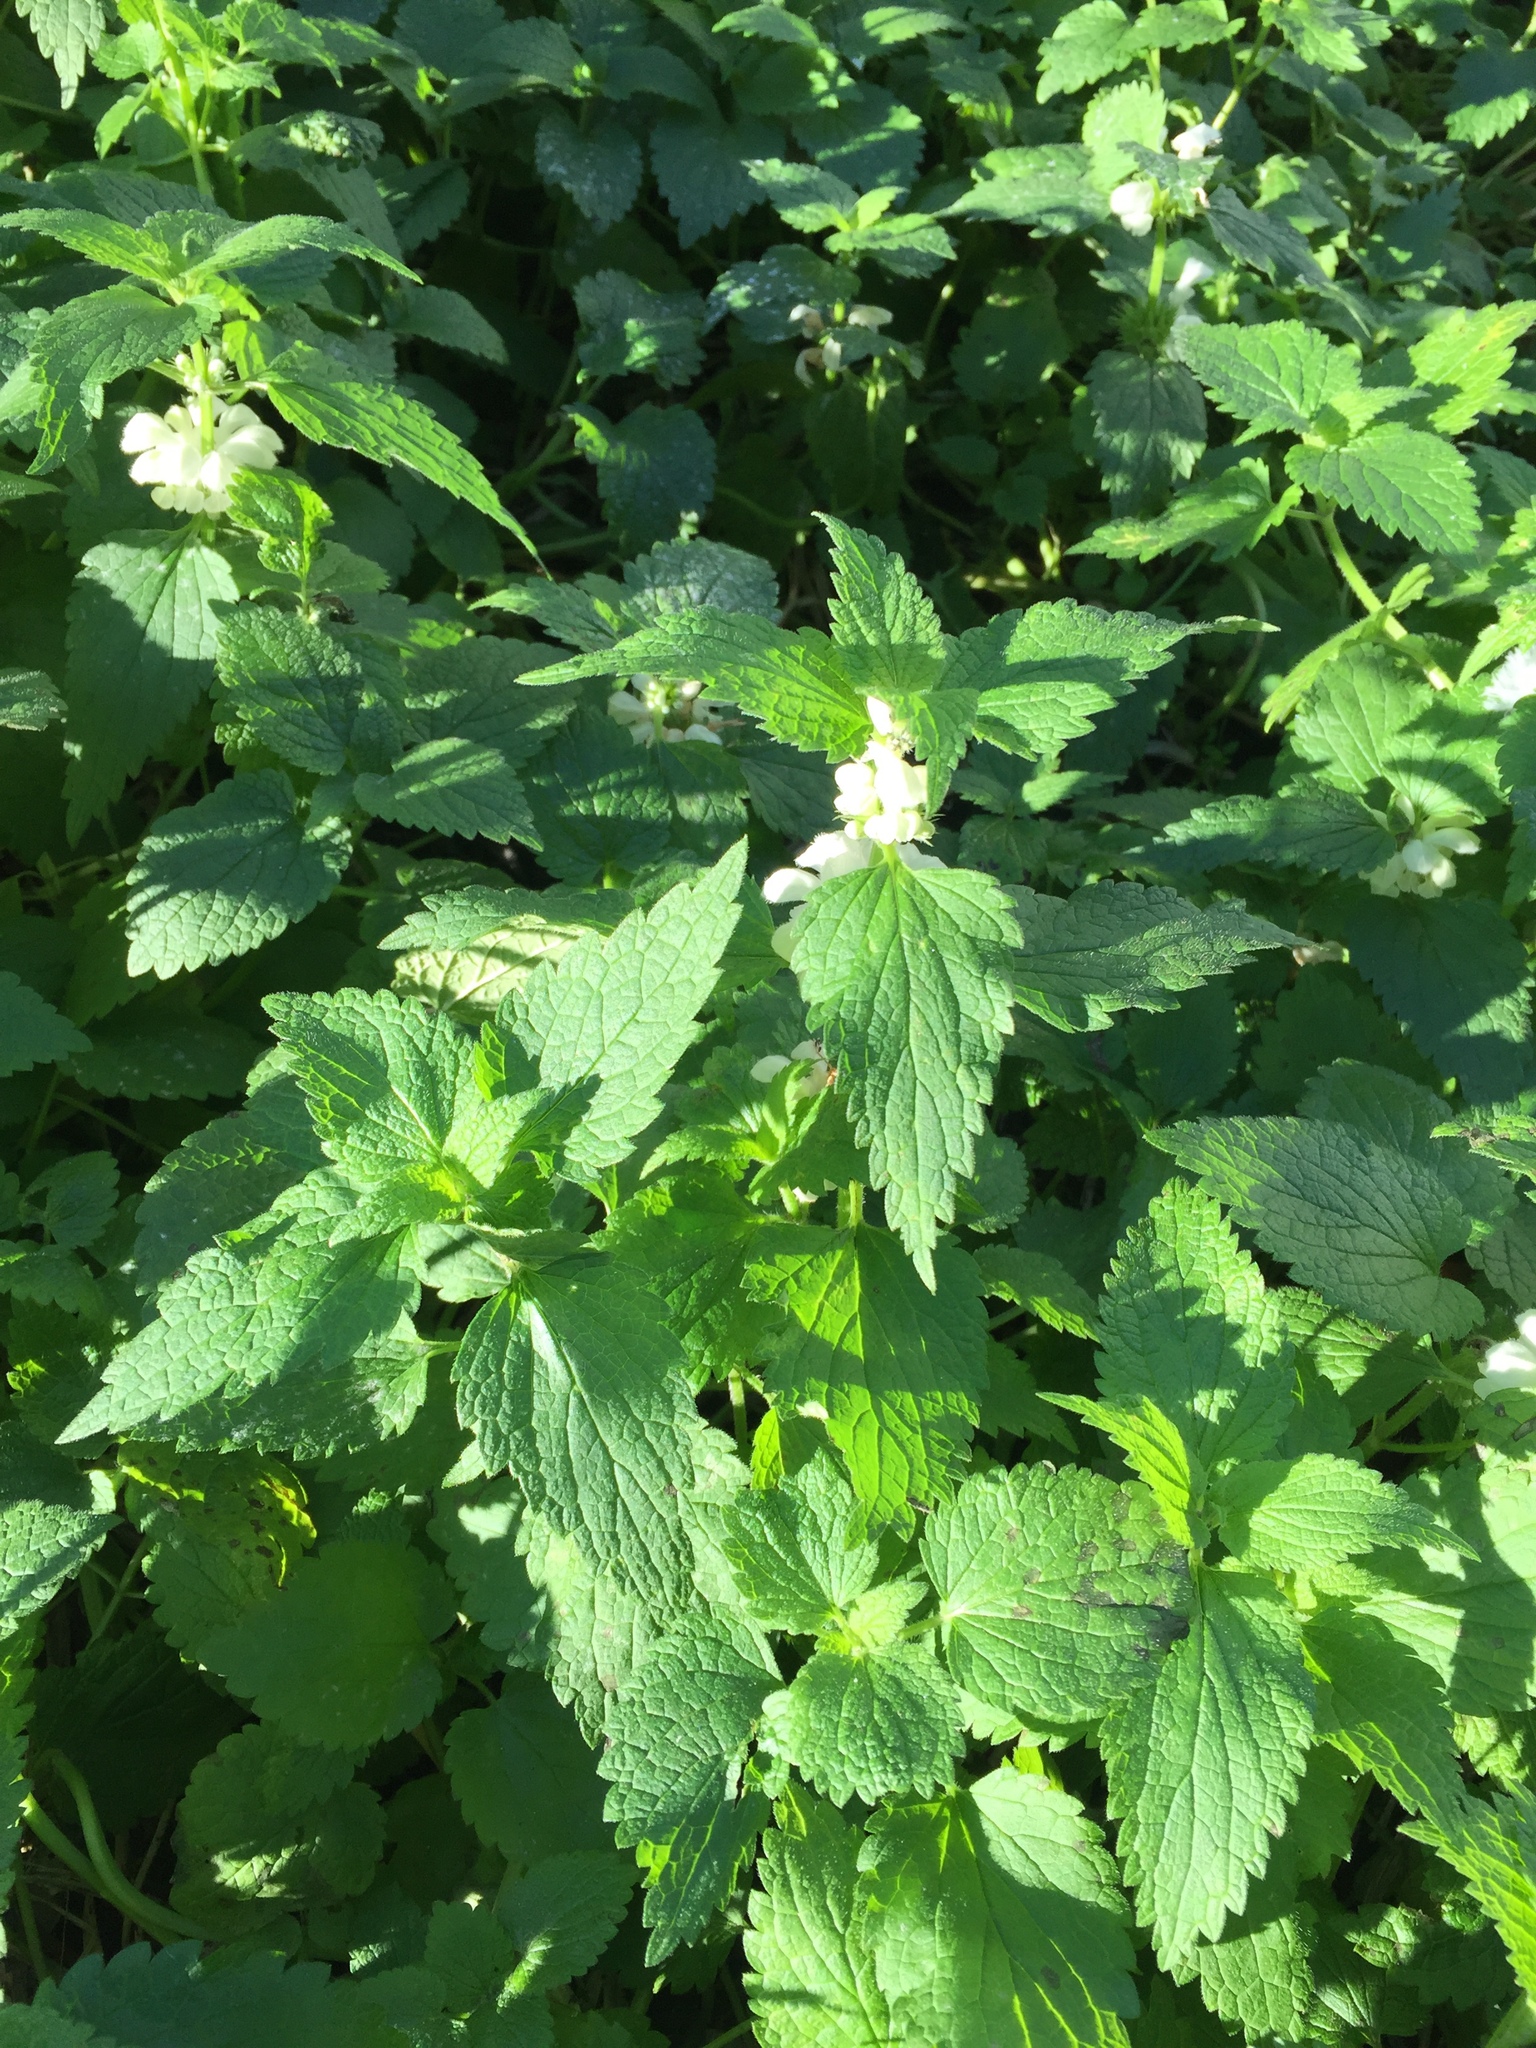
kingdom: Plantae
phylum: Tracheophyta
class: Magnoliopsida
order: Lamiales
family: Lamiaceae
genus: Lamium
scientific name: Lamium album
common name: White dead-nettle
